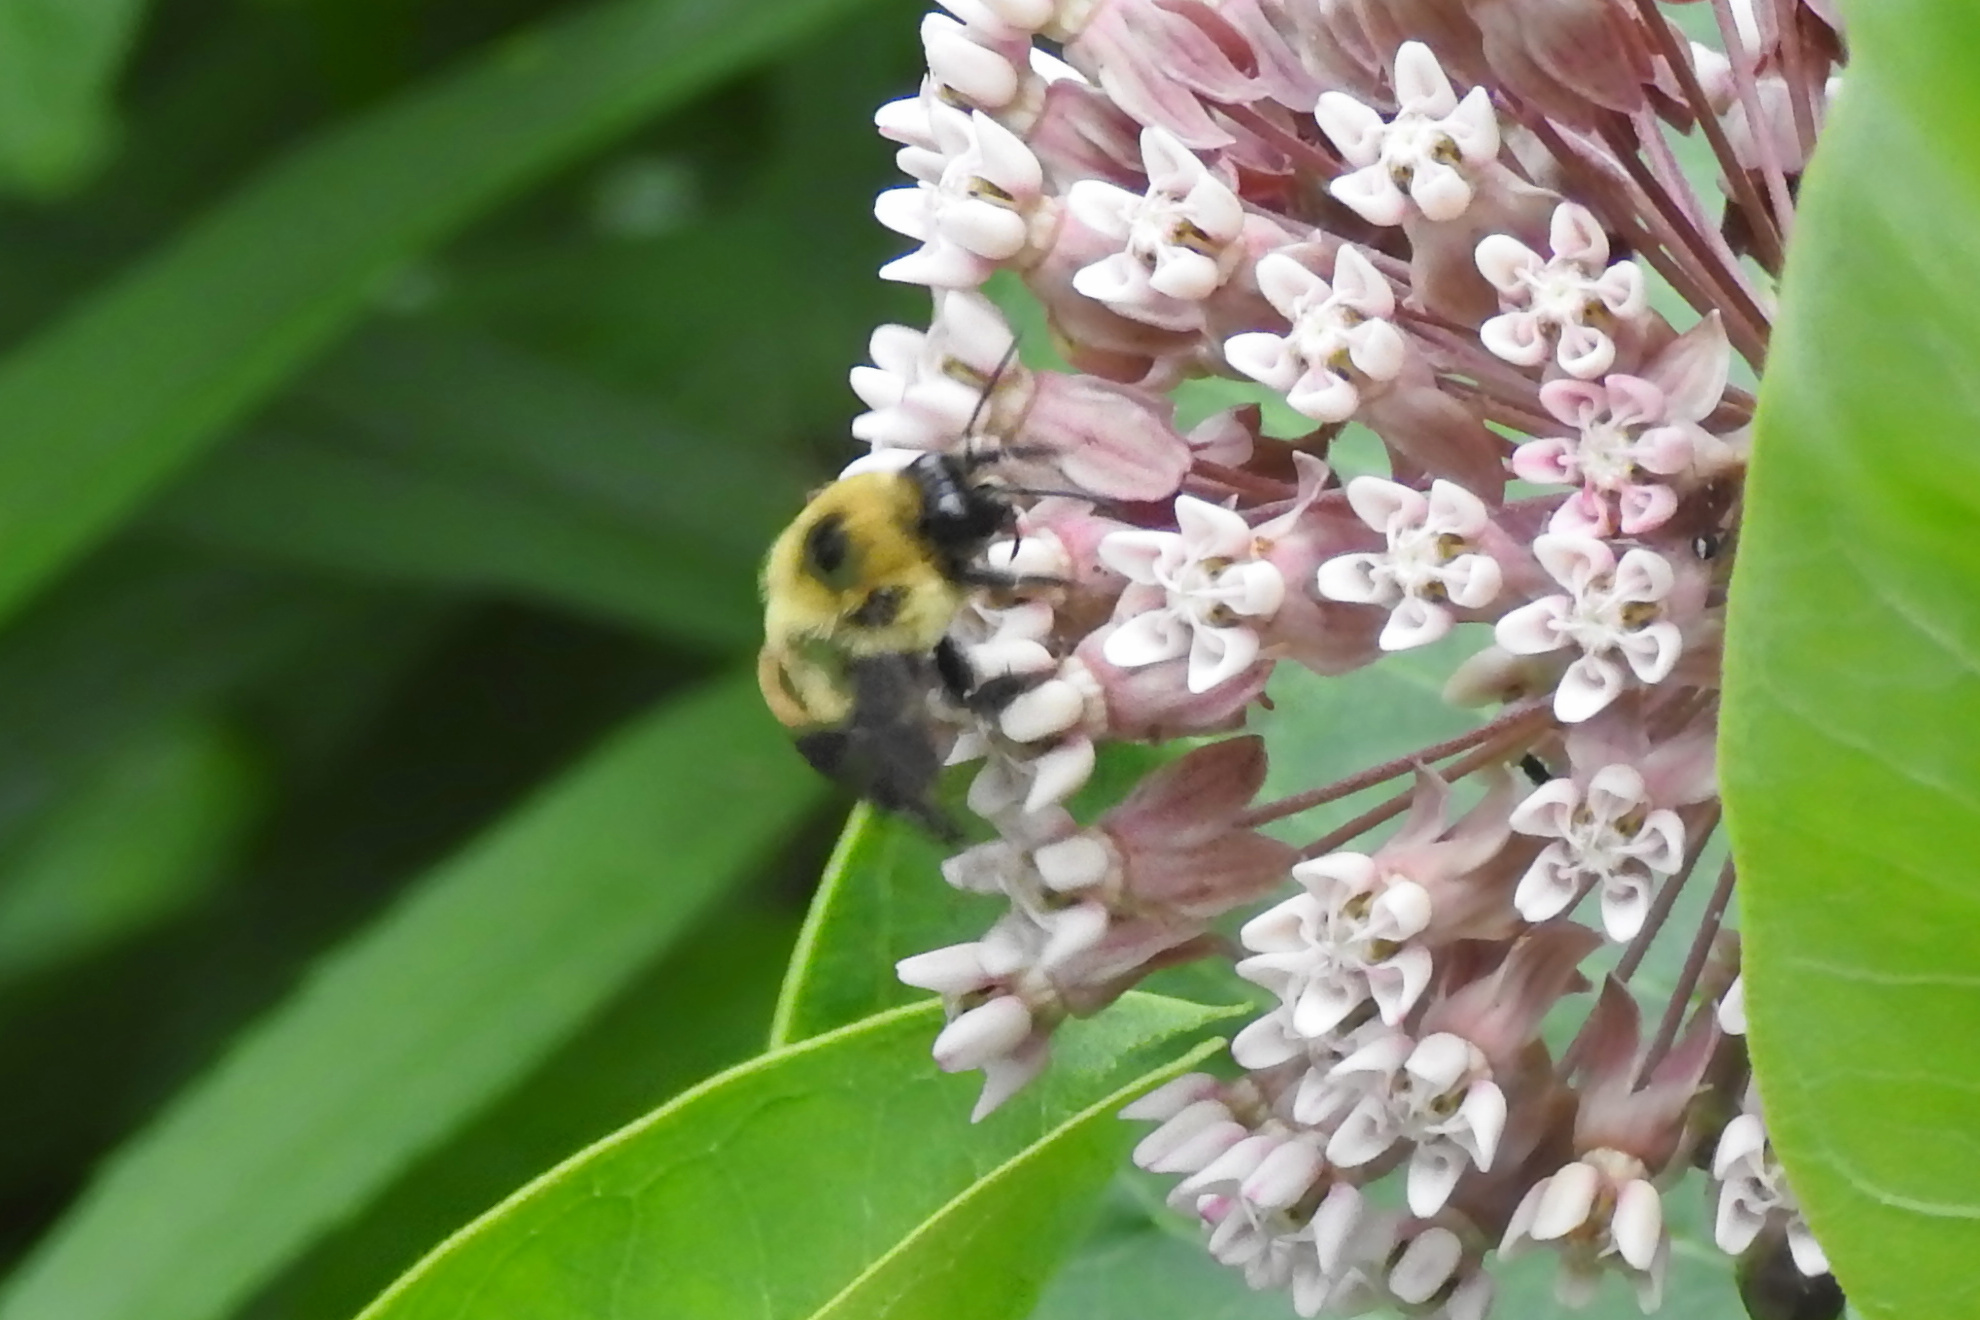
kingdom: Animalia
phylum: Arthropoda
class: Insecta
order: Hymenoptera
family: Apidae
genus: Bombus
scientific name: Bombus griseocollis
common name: Brown-belted bumble bee
